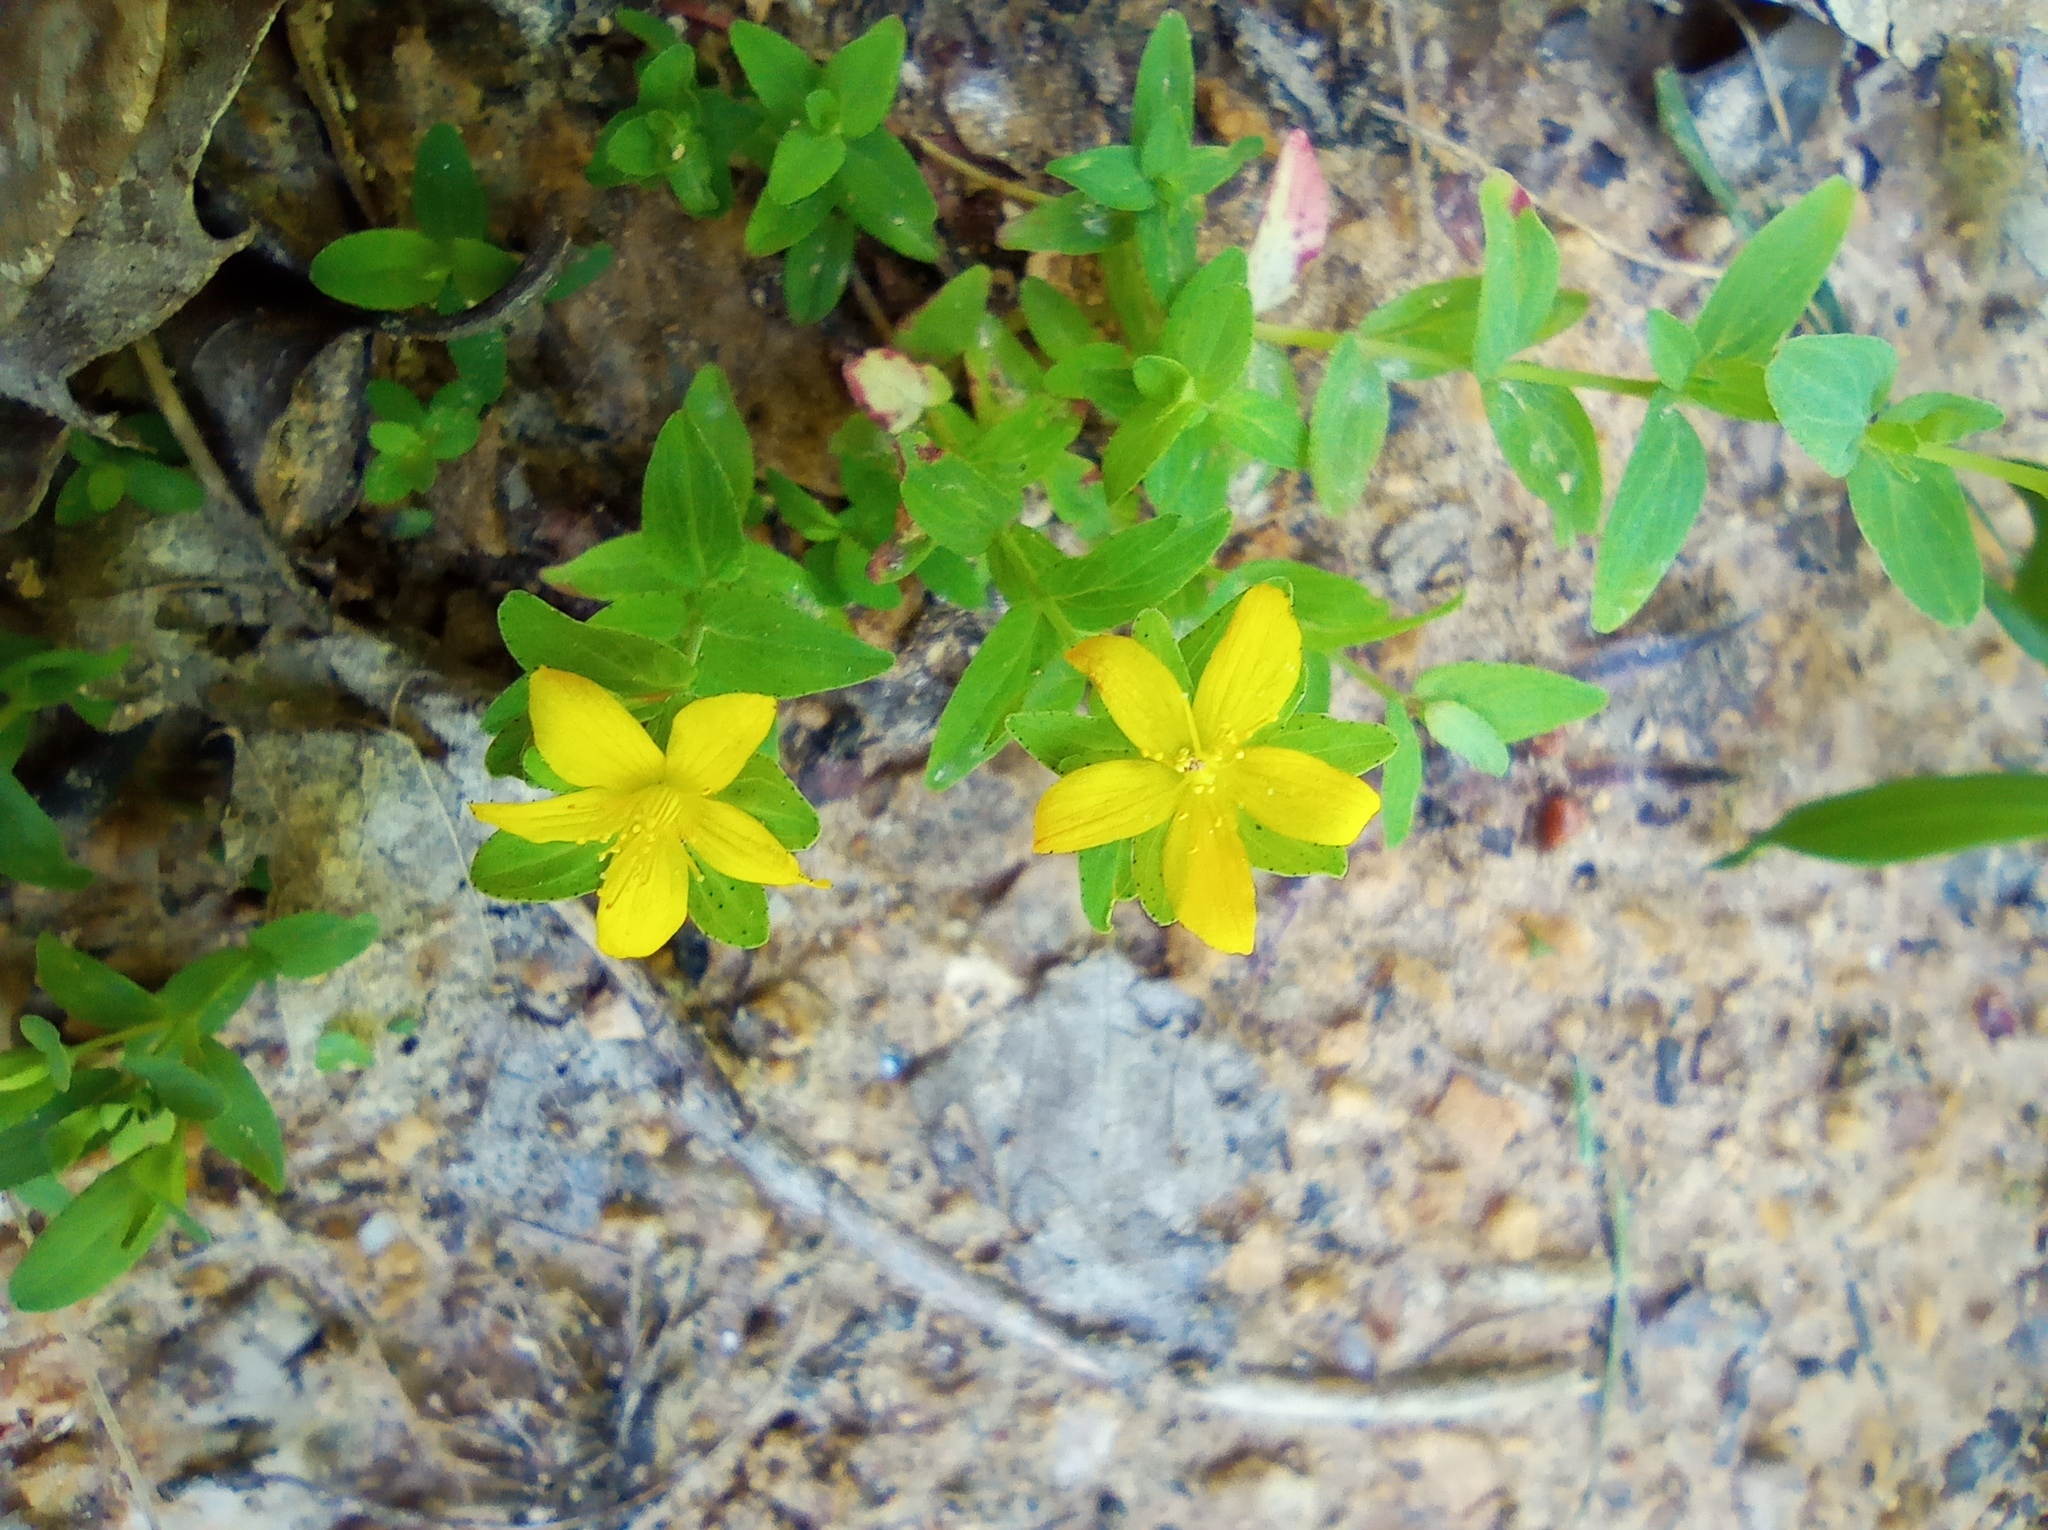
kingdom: Plantae
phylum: Tracheophyta
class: Magnoliopsida
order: Malpighiales
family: Hypericaceae
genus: Hypericum
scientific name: Hypericum humifusum
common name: Trailing st. john's-wort
